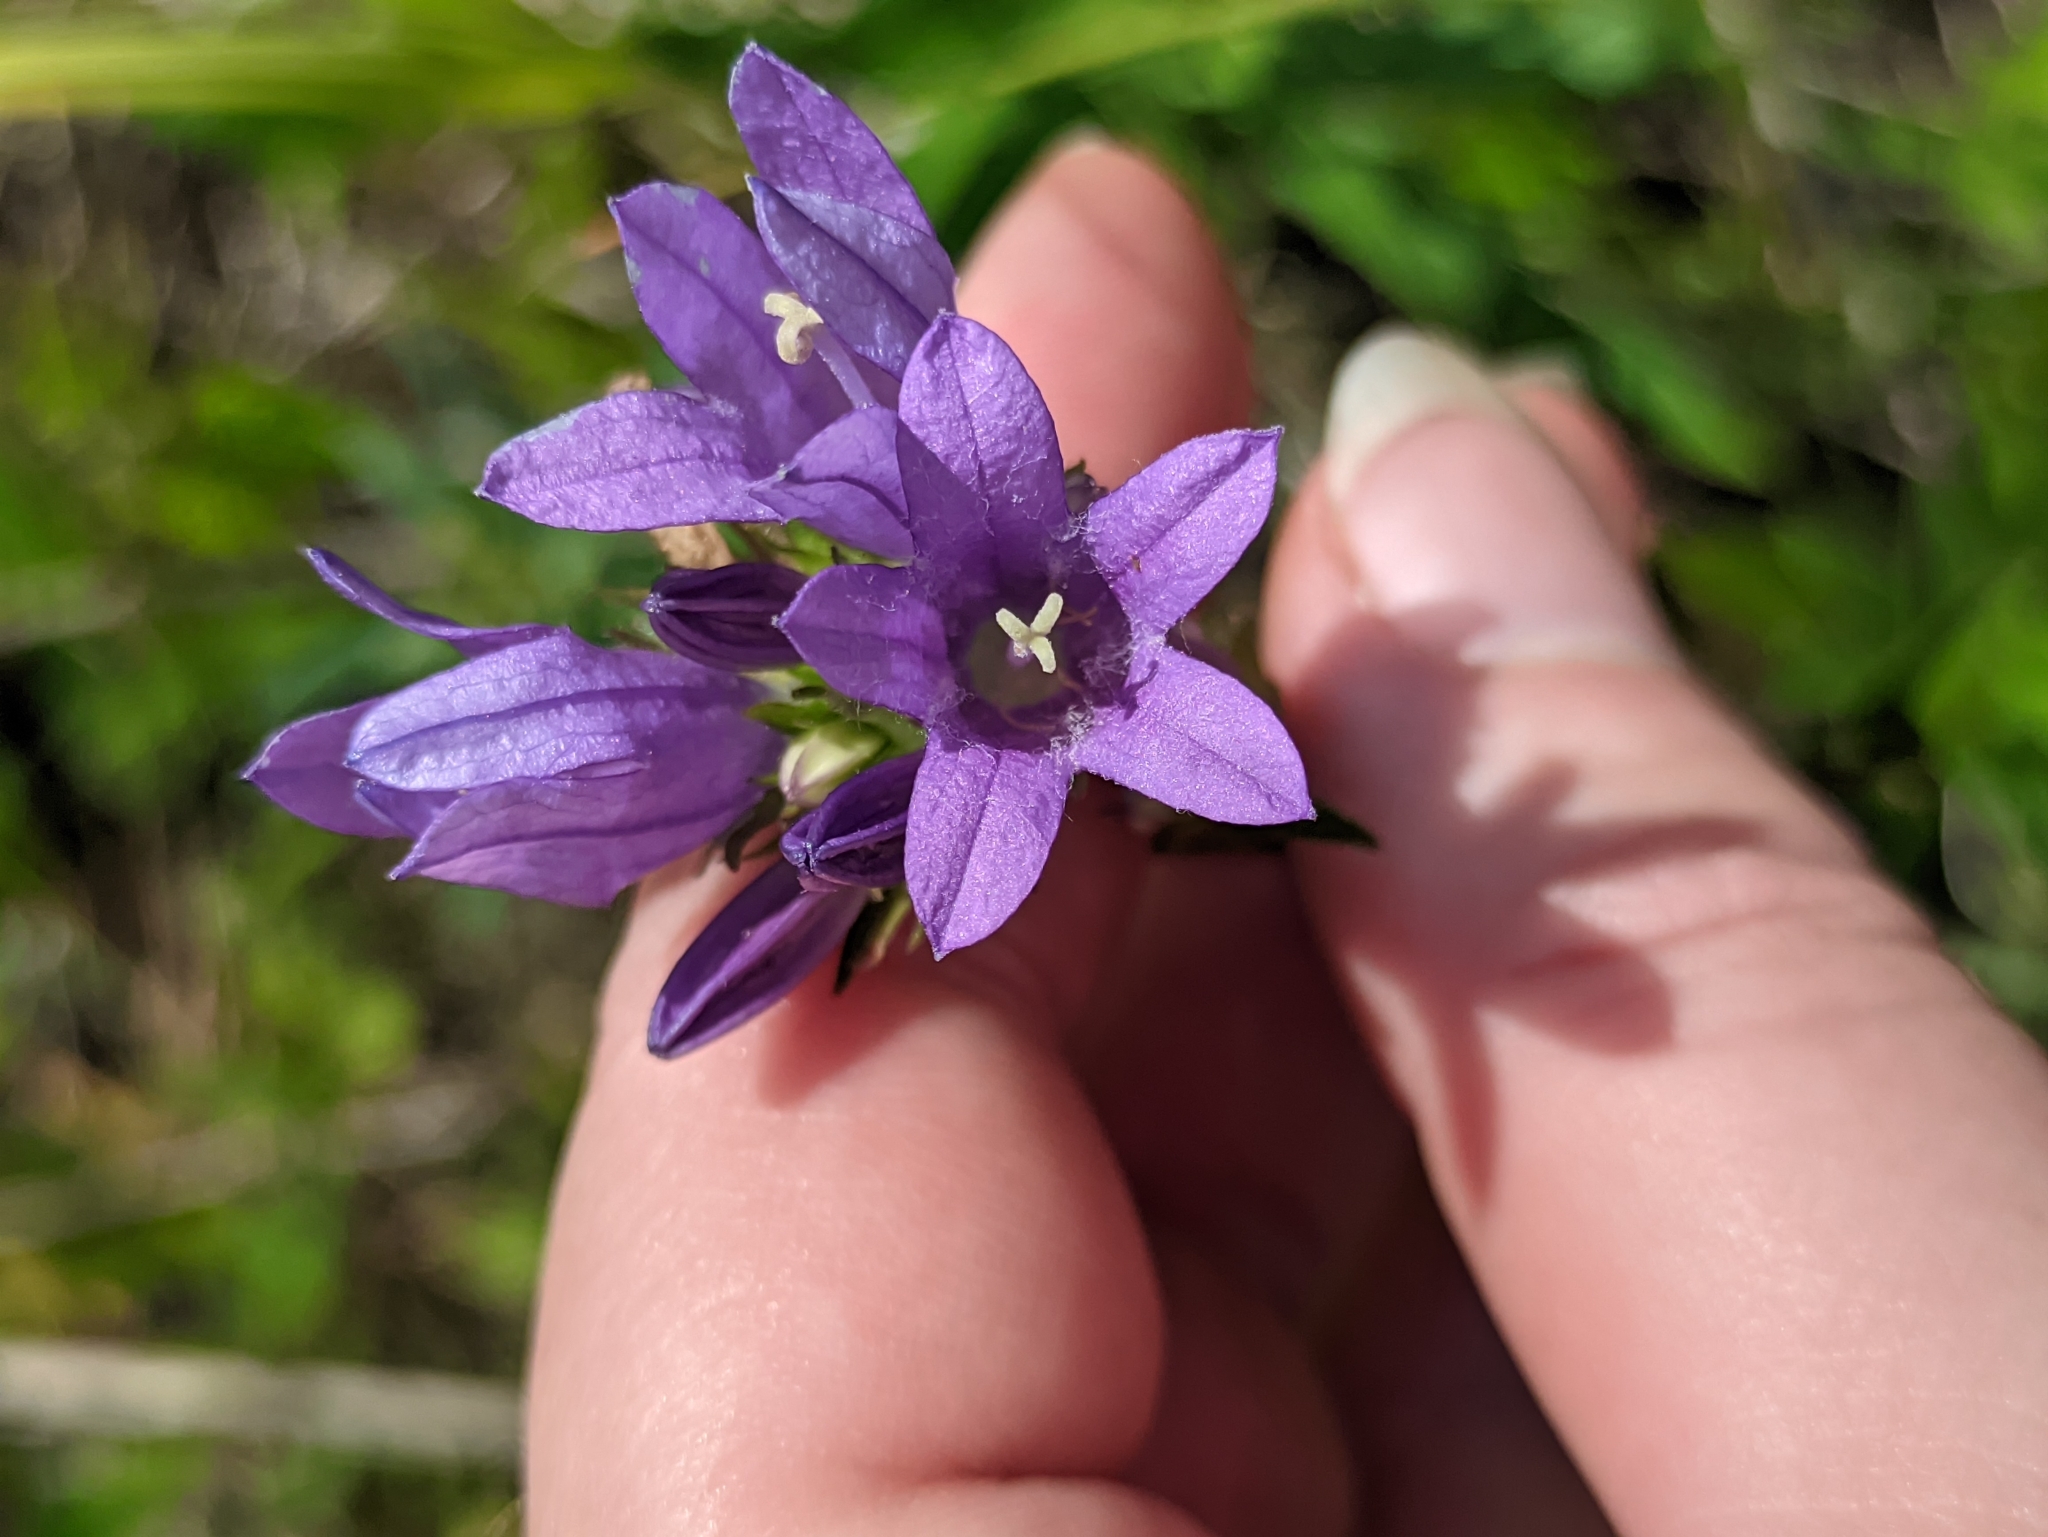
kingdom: Plantae
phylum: Tracheophyta
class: Magnoliopsida
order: Asterales
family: Campanulaceae
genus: Campanula
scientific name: Campanula glomerata
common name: Clustered bellflower
